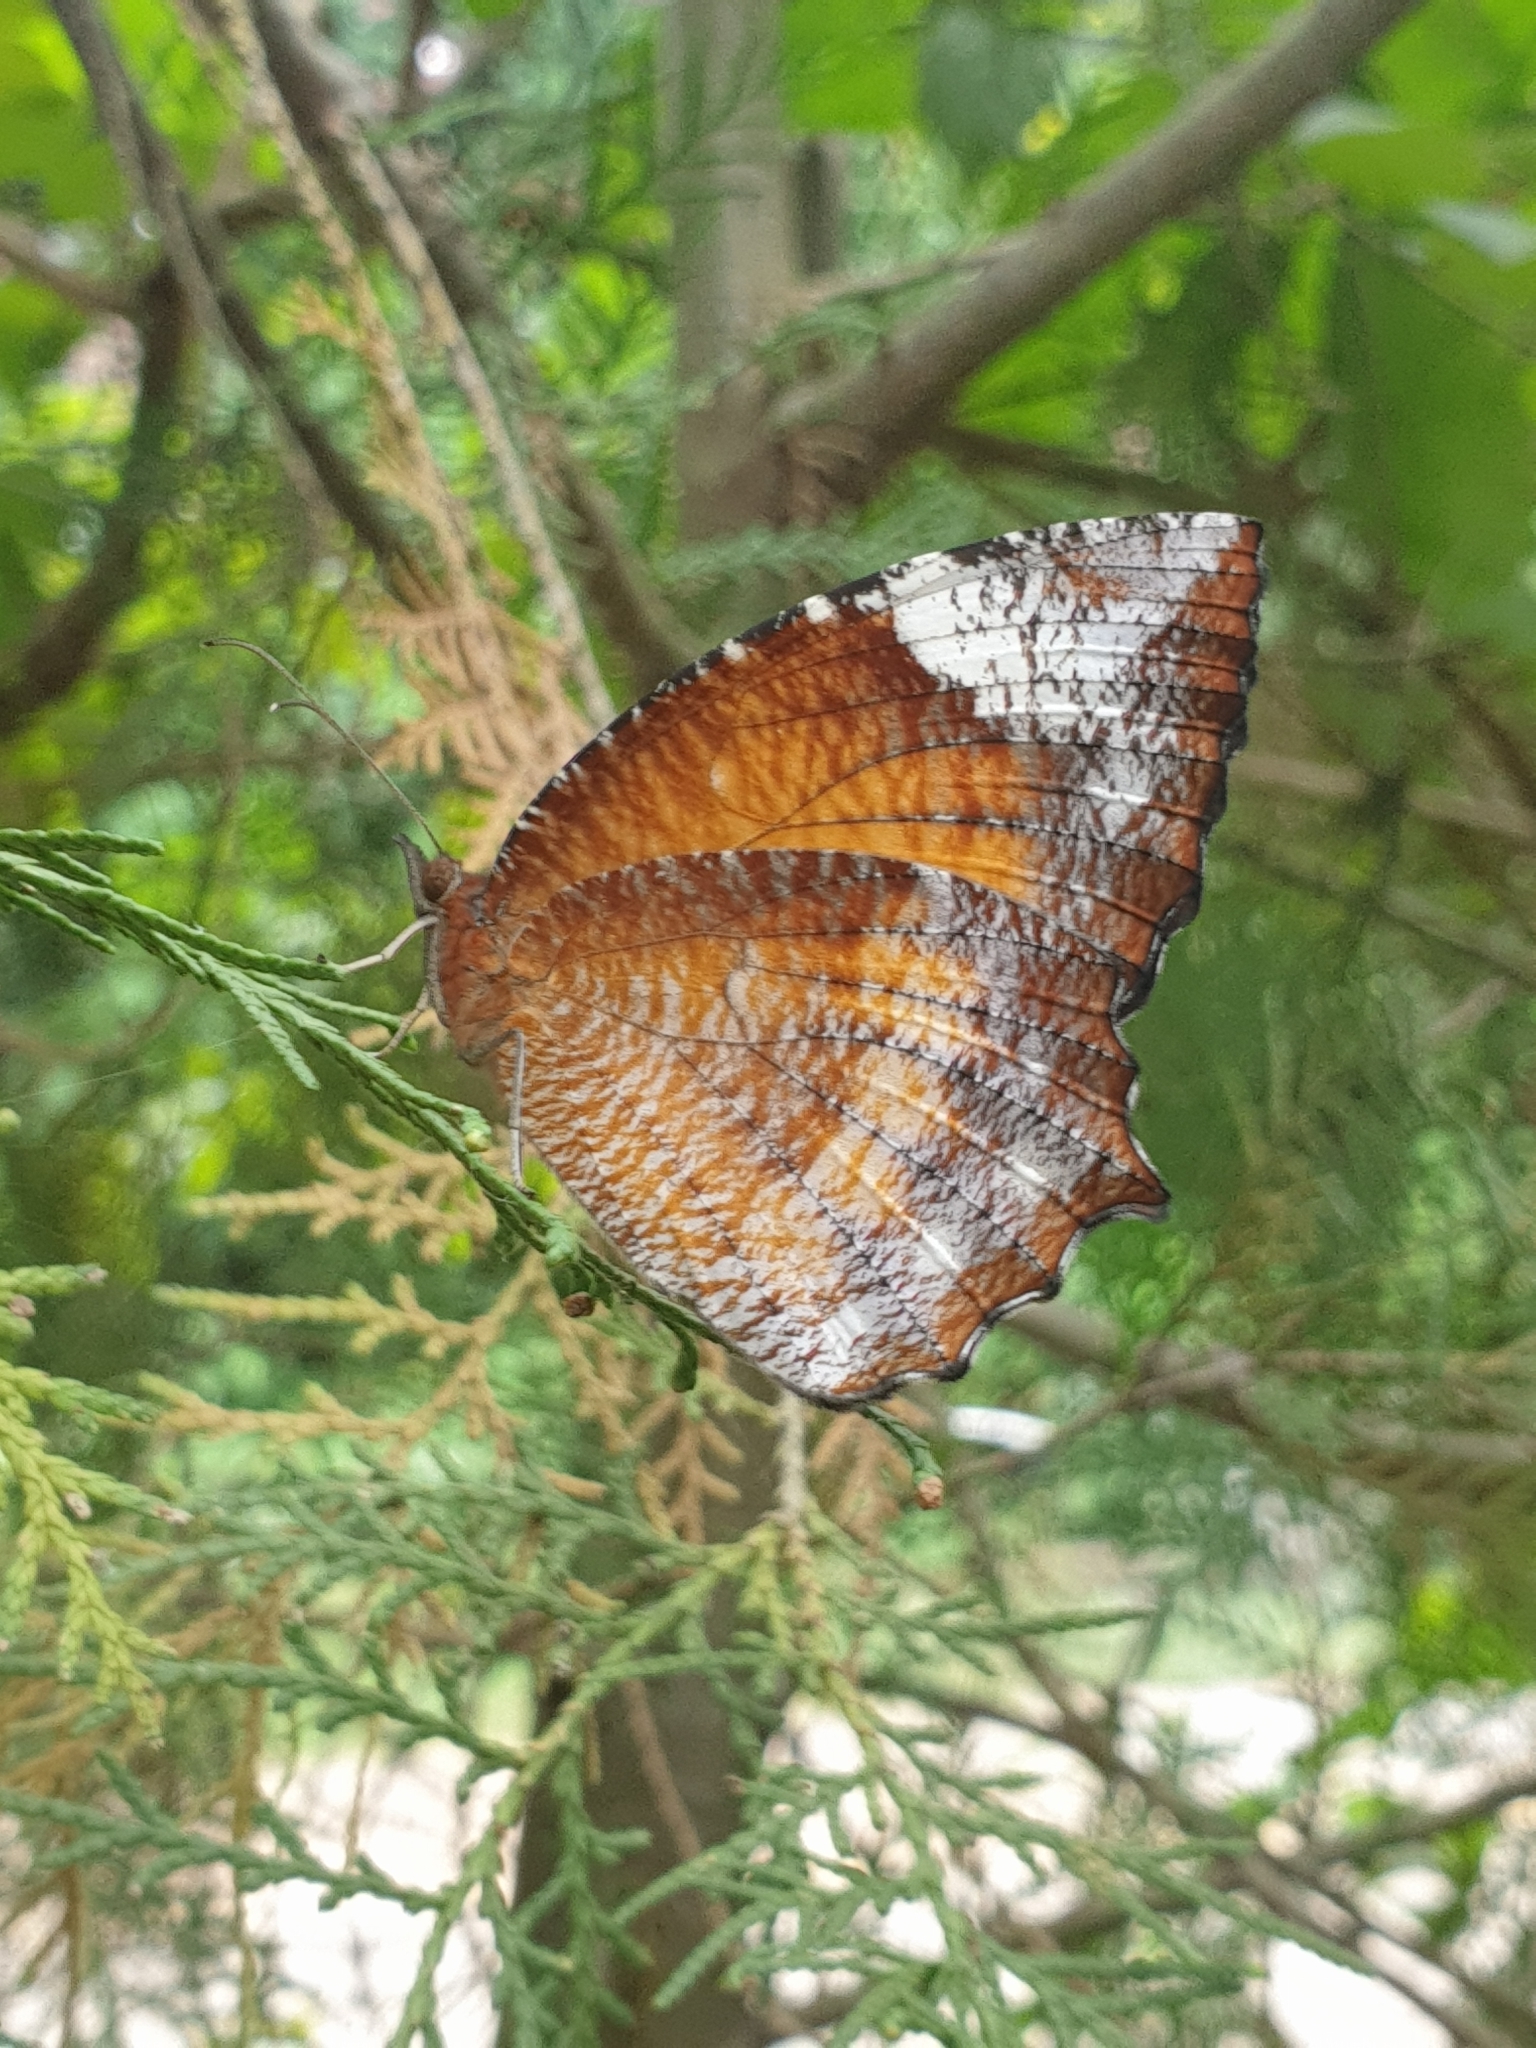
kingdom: Animalia
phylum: Arthropoda
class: Insecta
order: Lepidoptera
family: Nymphalidae
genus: Elymnias
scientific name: Elymnias hypermnestra
